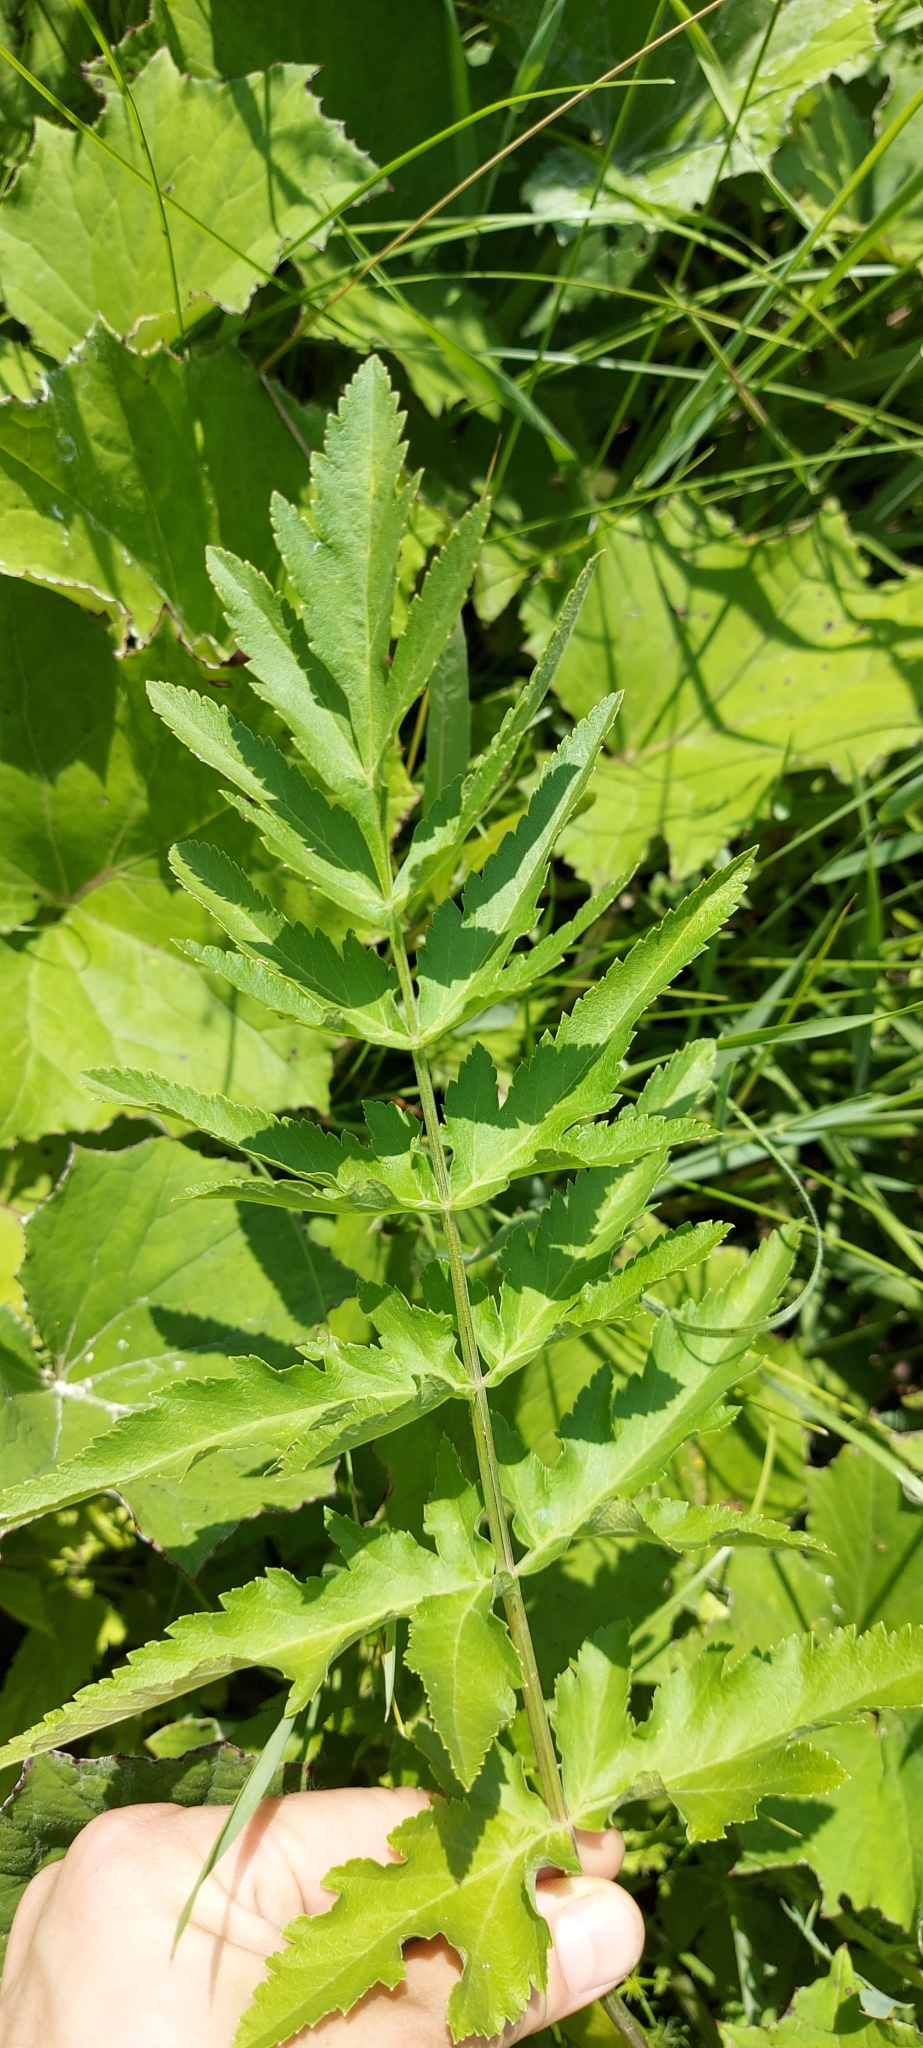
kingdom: Plantae
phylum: Tracheophyta
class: Magnoliopsida
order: Apiales
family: Apiaceae
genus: Pastinaca
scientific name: Pastinaca sativa
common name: Wild parsnip
